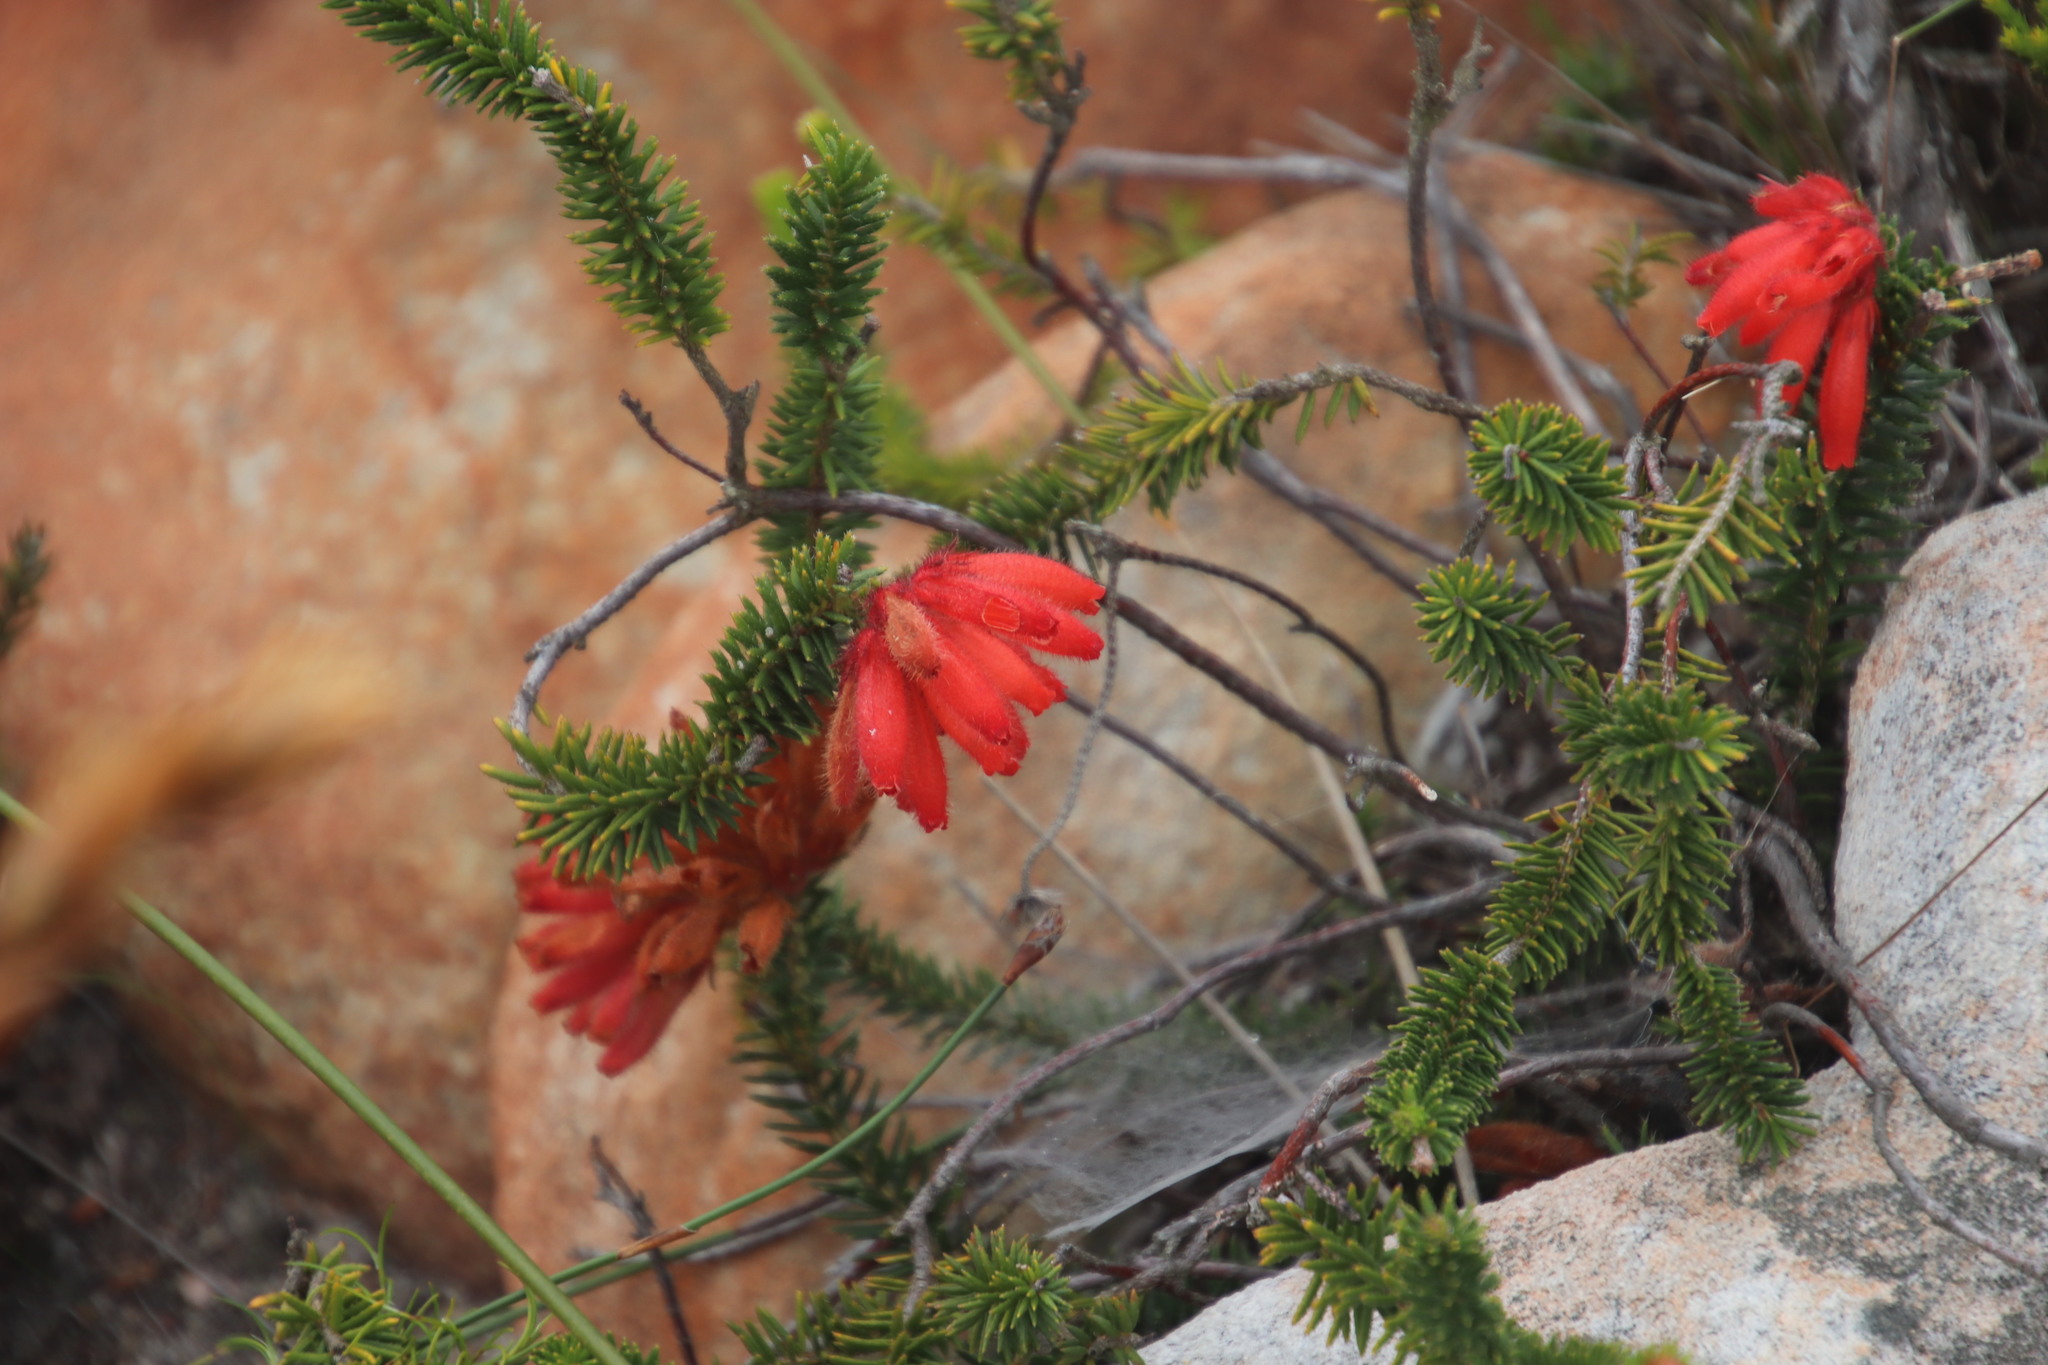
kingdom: Plantae
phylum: Tracheophyta
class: Magnoliopsida
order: Ericales
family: Ericaceae
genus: Erica
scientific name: Erica cerinthoides
